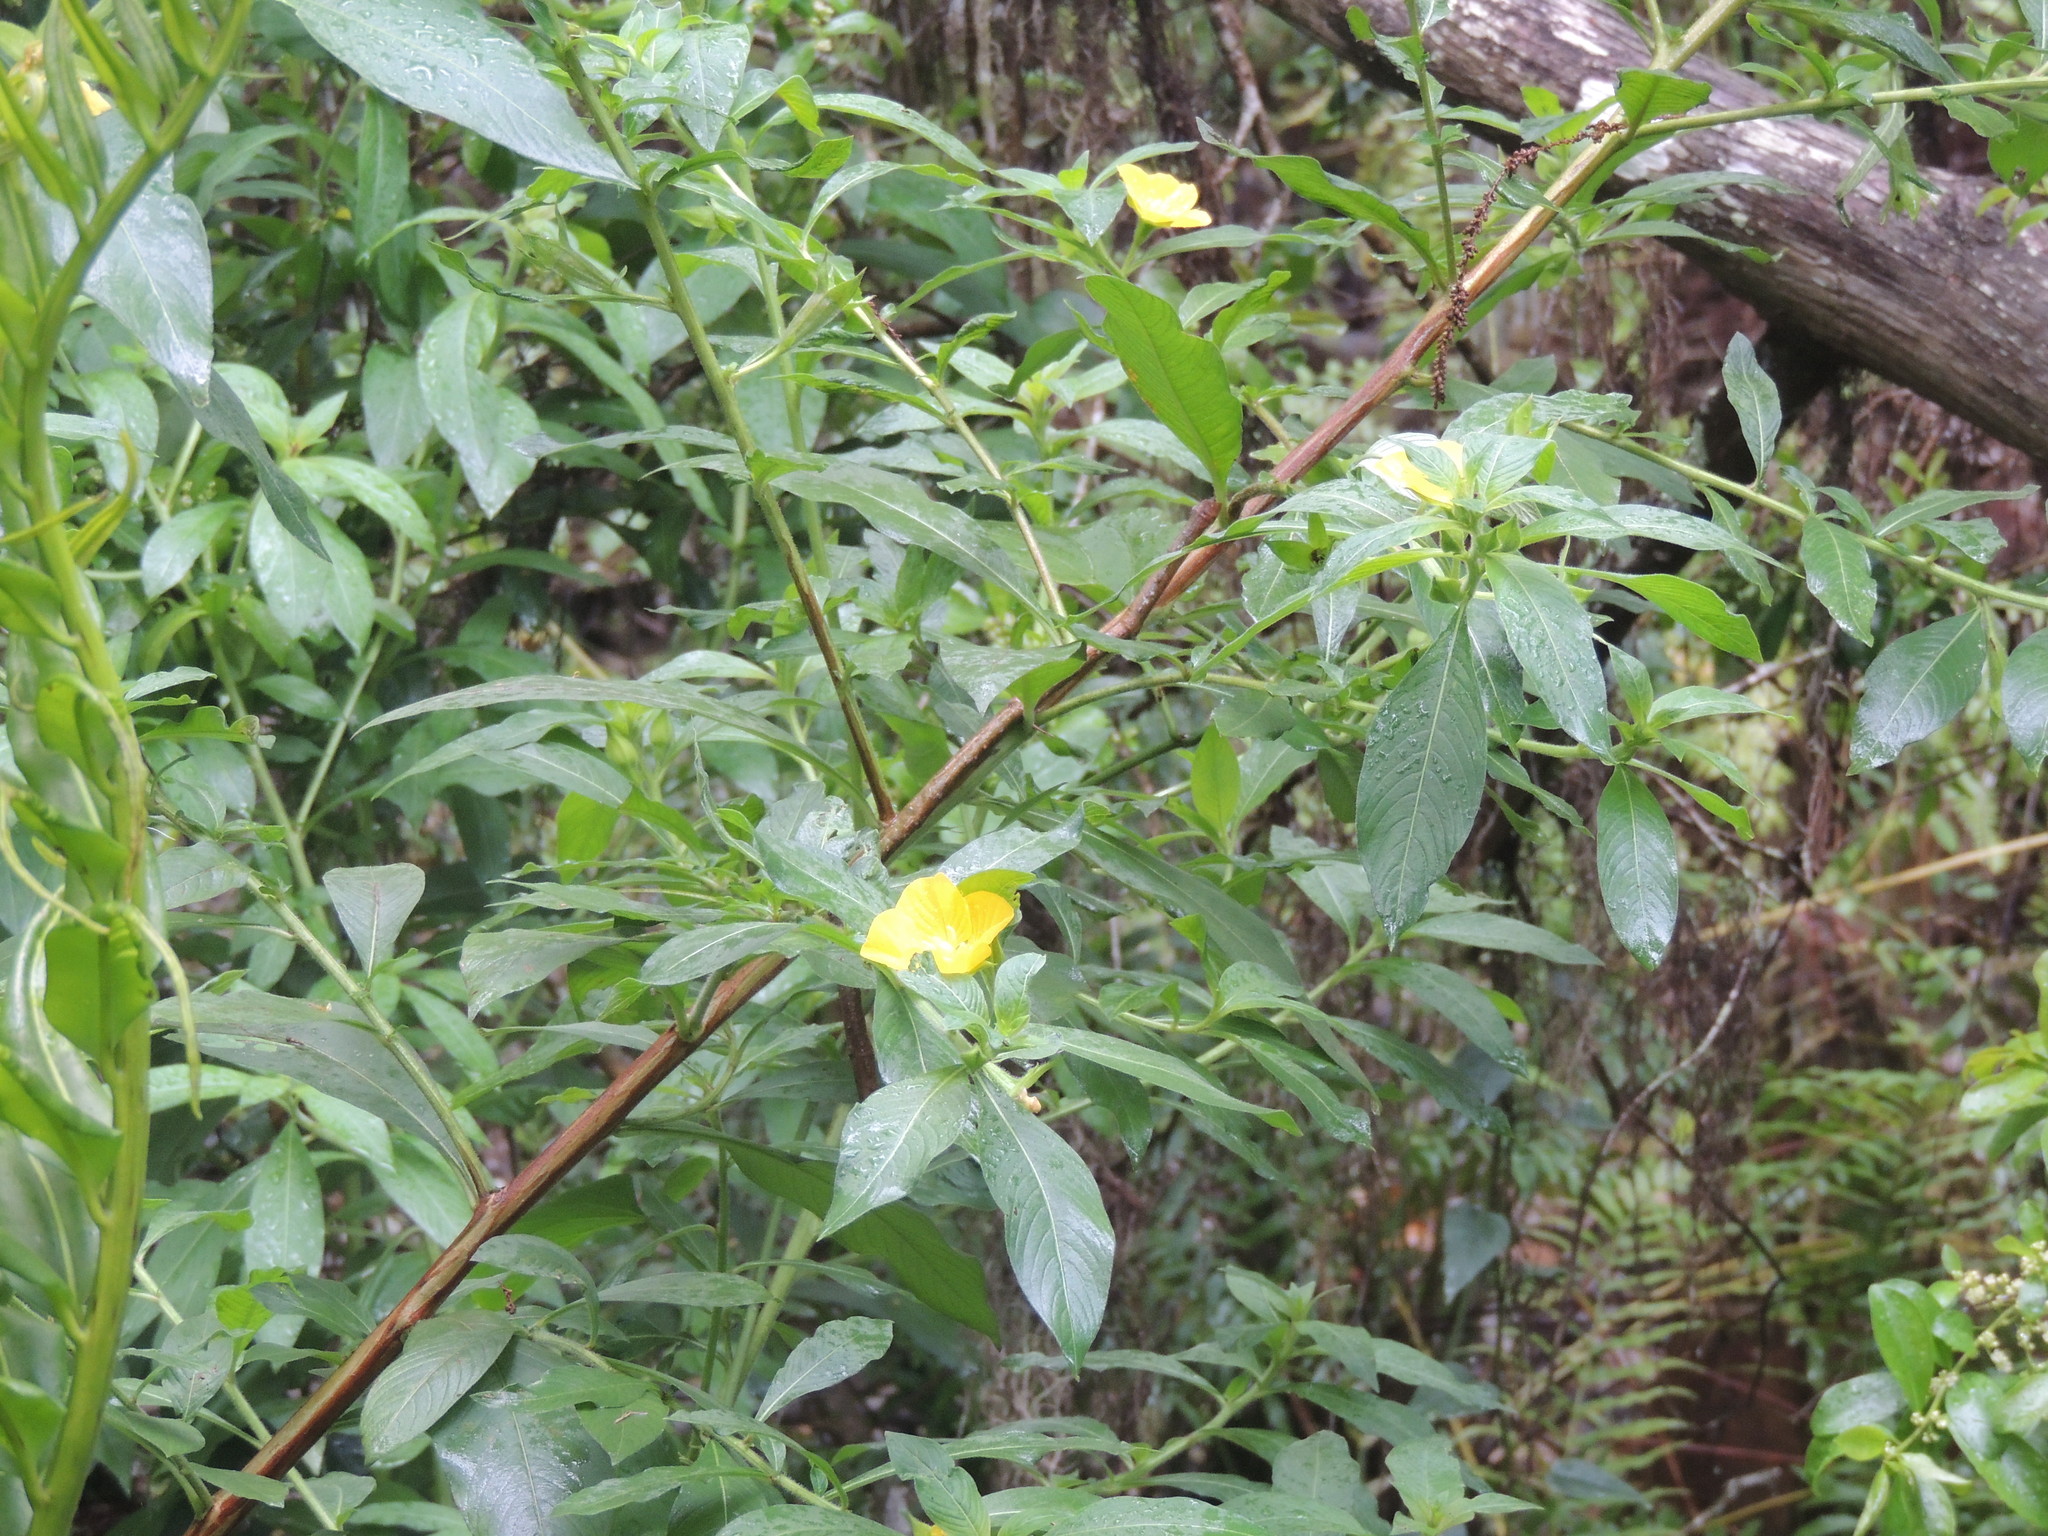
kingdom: Plantae
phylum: Tracheophyta
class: Magnoliopsida
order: Myrtales
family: Onagraceae
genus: Ludwigia
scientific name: Ludwigia peruviana
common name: Peruvian primrose-willow
